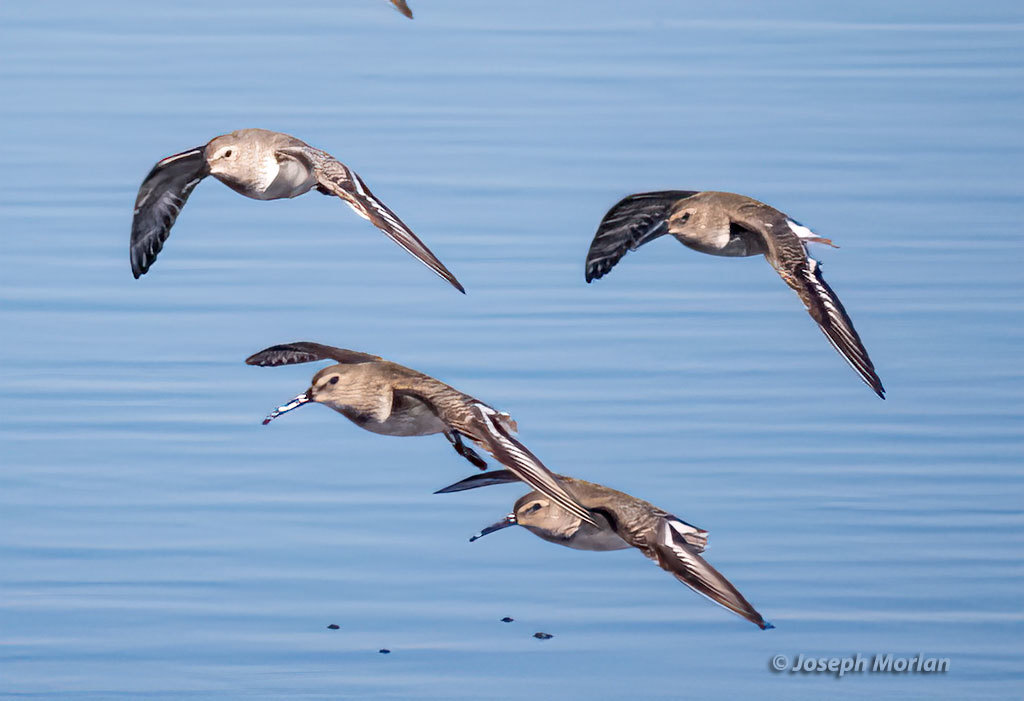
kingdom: Animalia
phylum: Chordata
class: Aves
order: Charadriiformes
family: Scolopacidae
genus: Calidris
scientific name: Calidris alpina
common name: Dunlin
